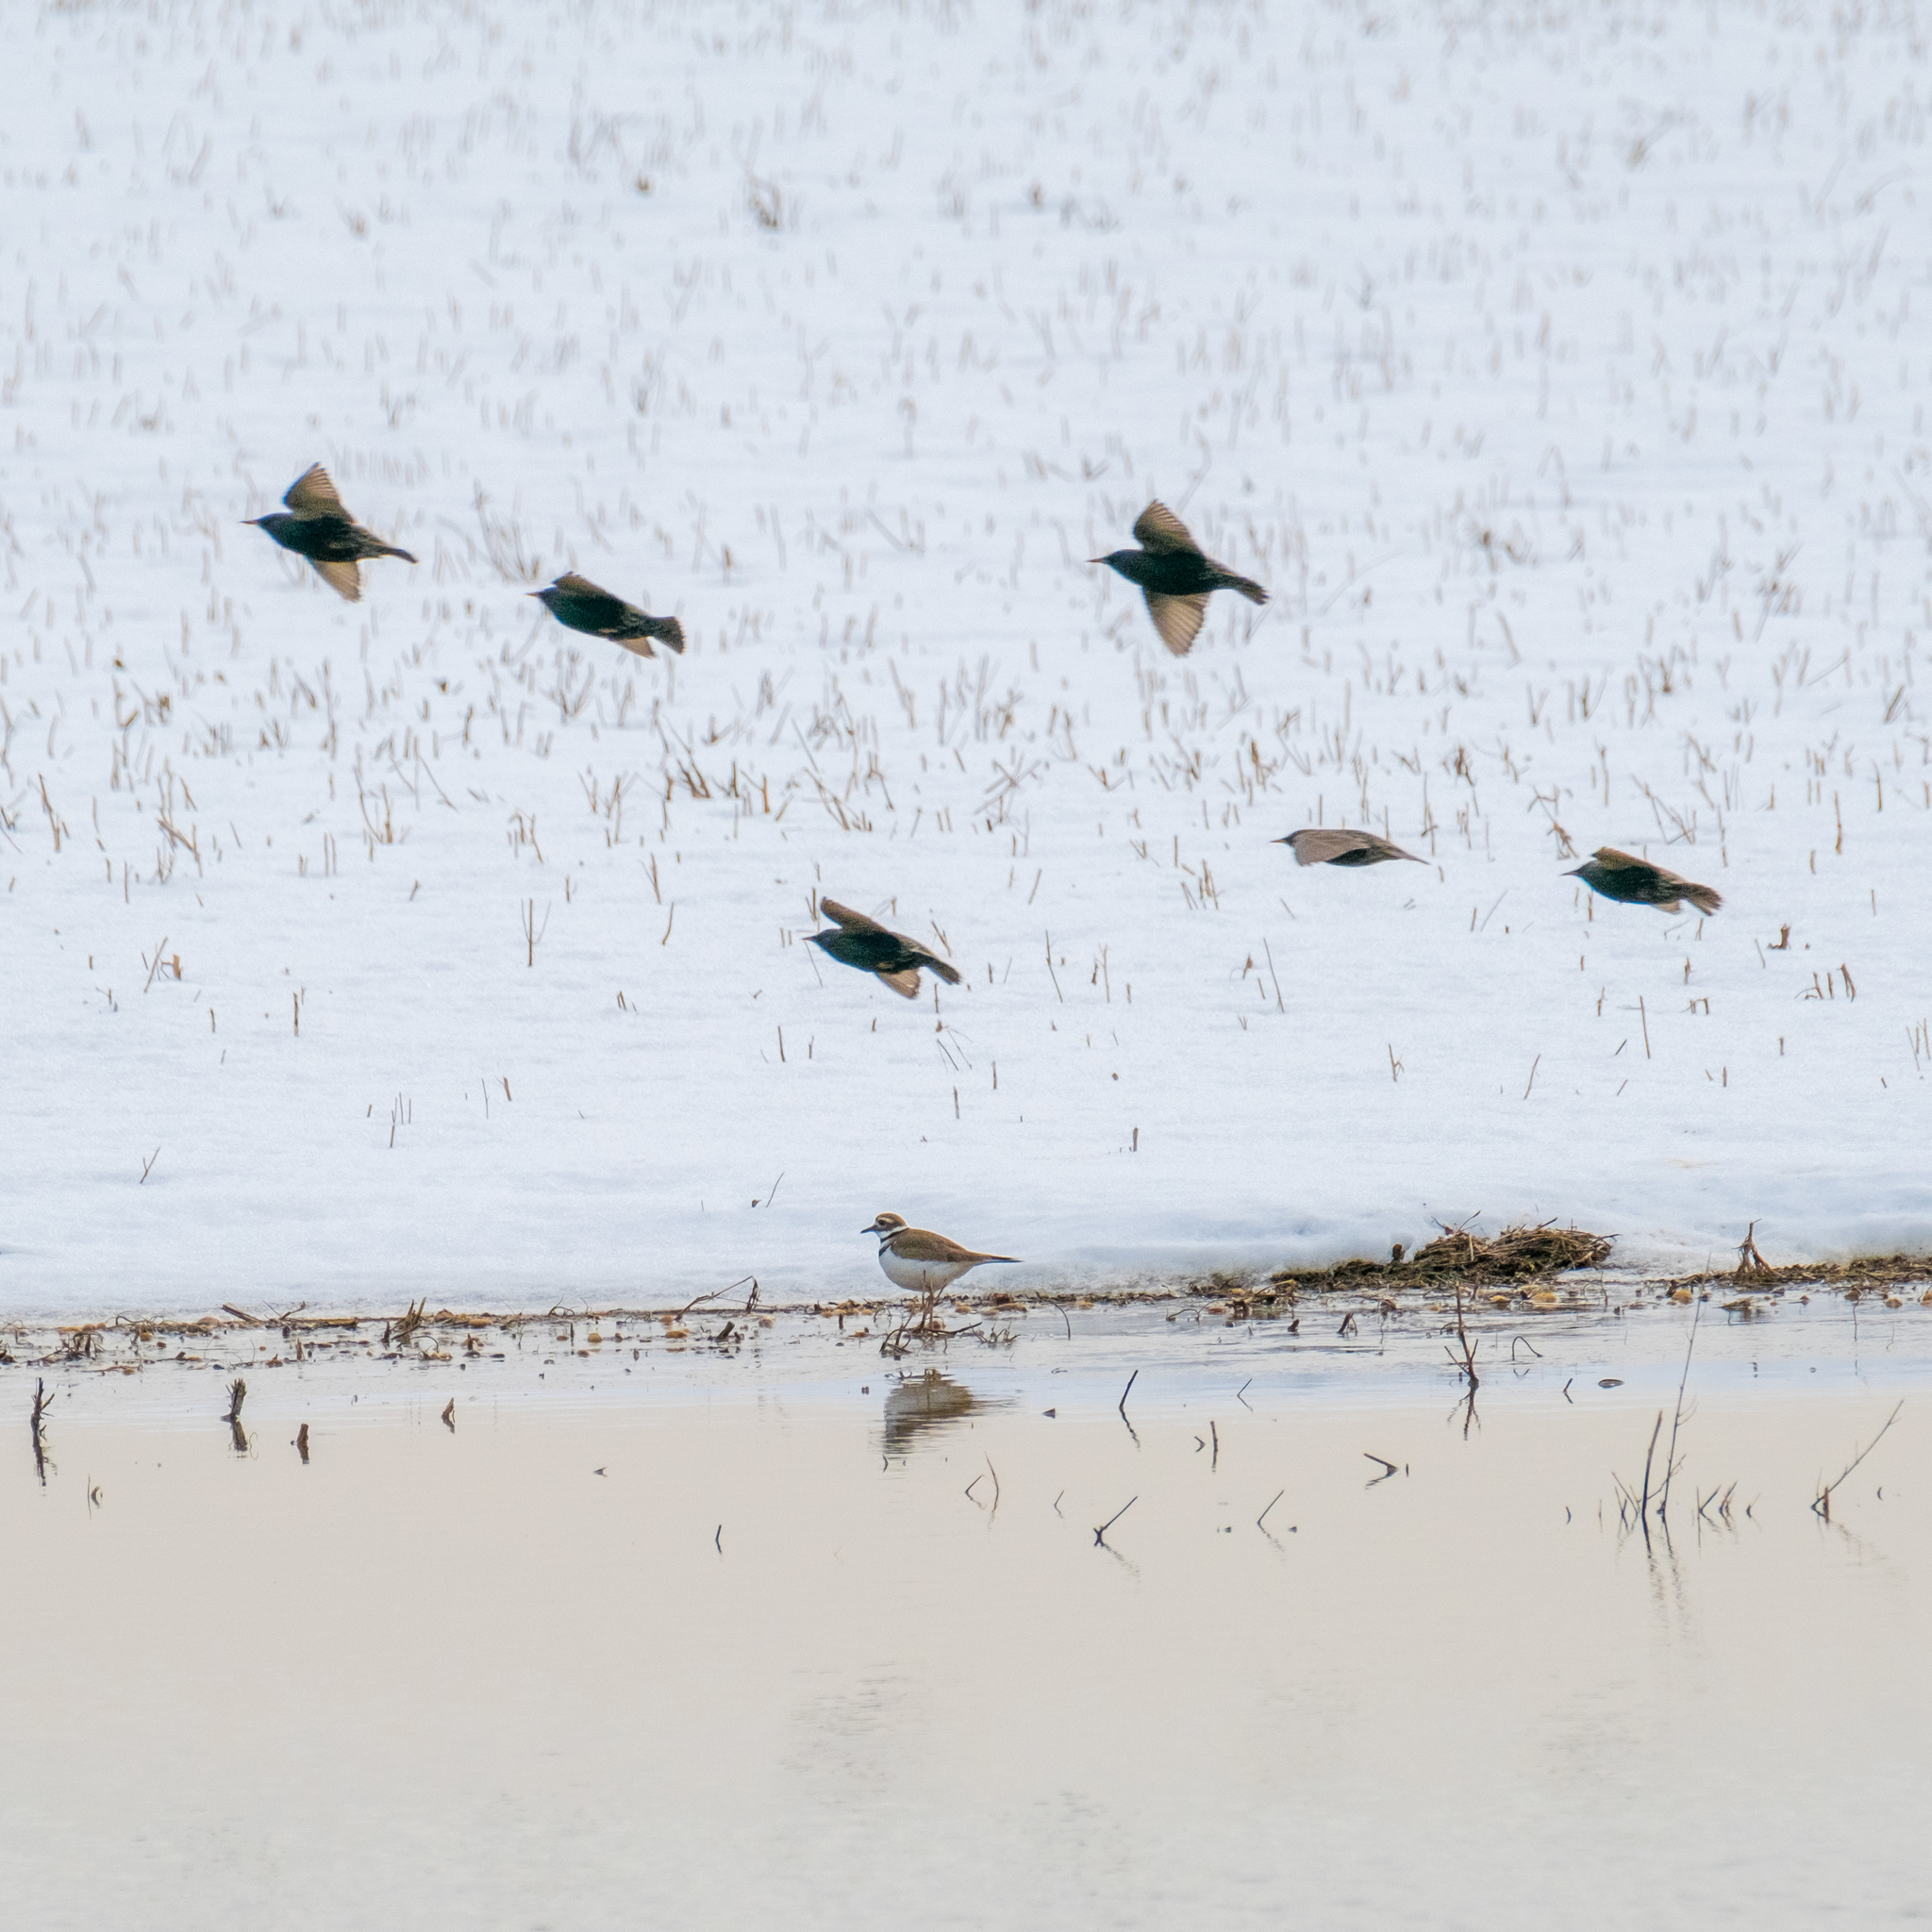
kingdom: Animalia
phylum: Chordata
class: Aves
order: Charadriiformes
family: Charadriidae
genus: Charadrius
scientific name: Charadrius vociferus
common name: Killdeer
